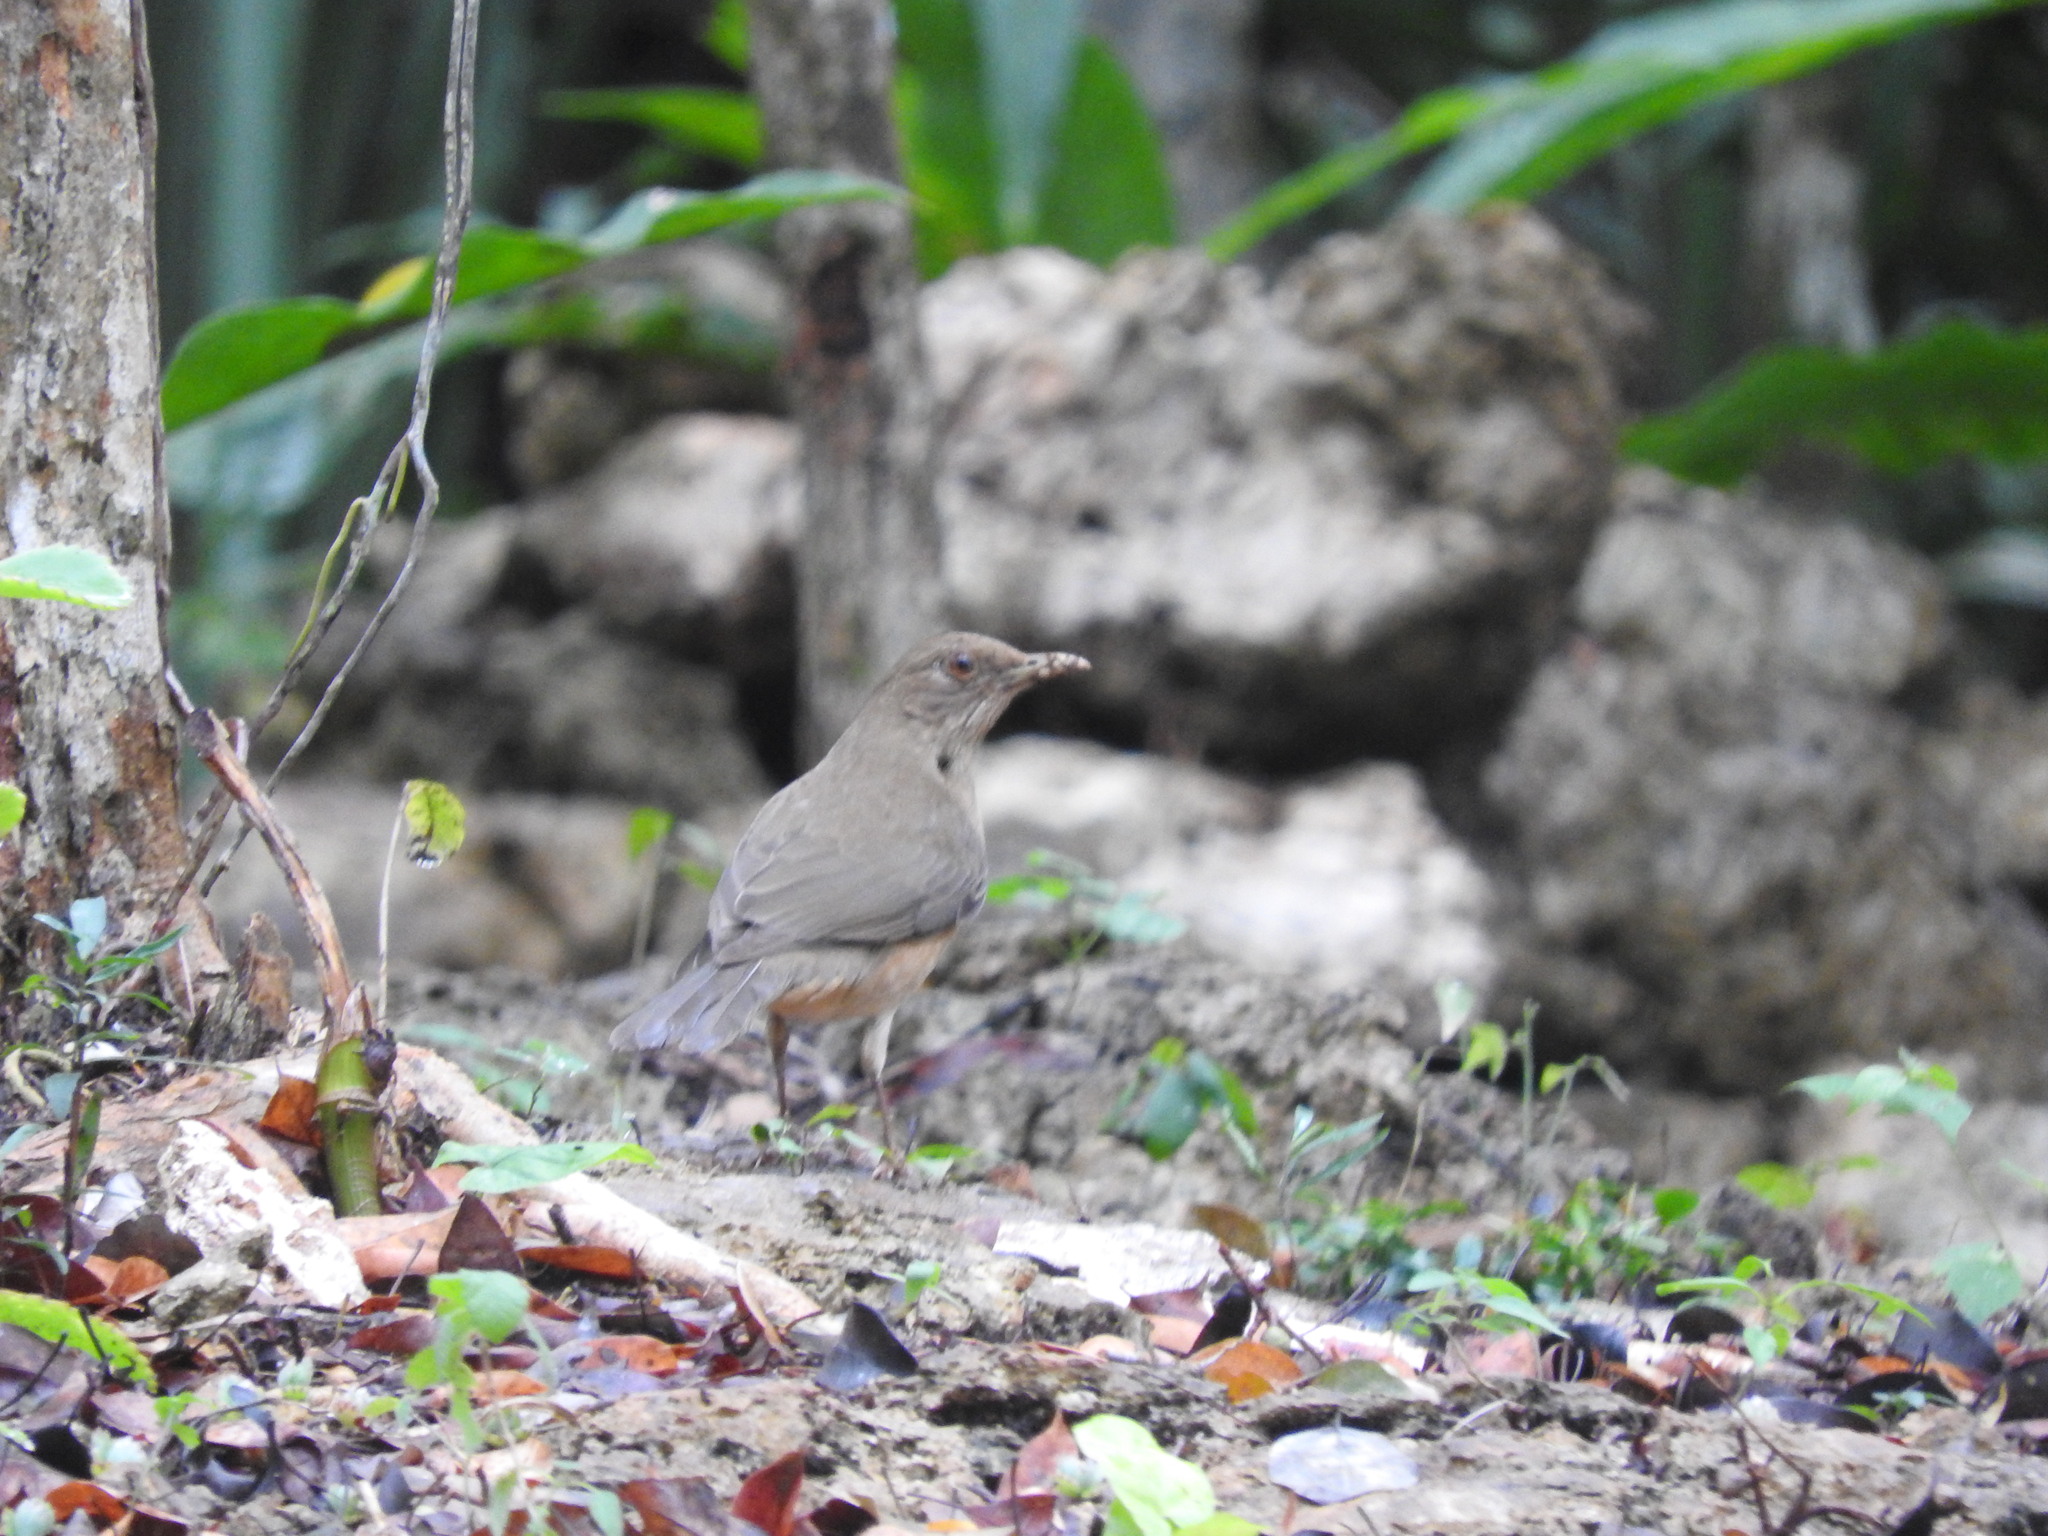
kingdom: Animalia
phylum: Chordata
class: Aves
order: Passeriformes
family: Turdidae
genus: Turdus
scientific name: Turdus grayi
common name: Clay-colored thrush
